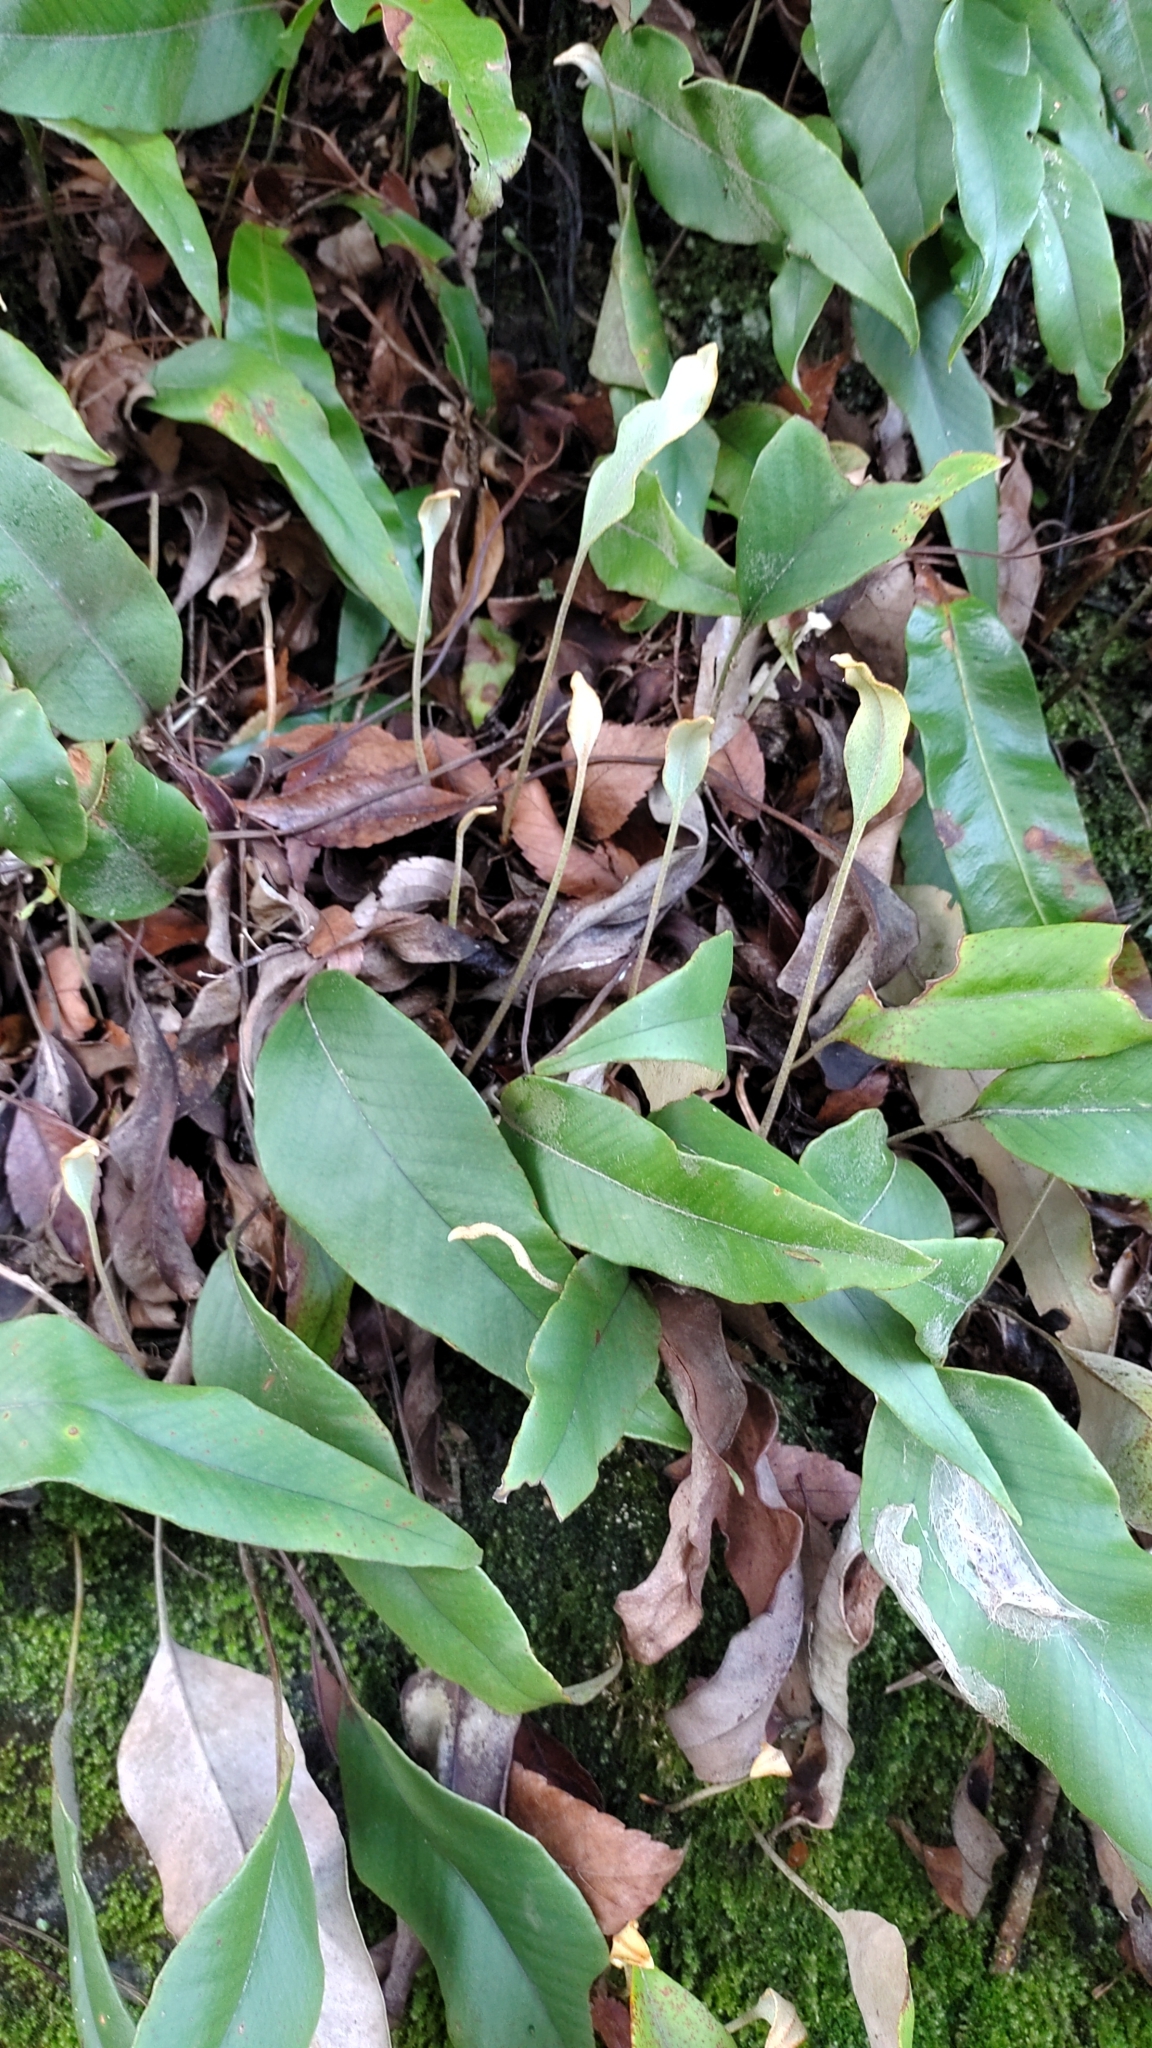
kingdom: Plantae
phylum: Tracheophyta
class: Polypodiopsida
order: Polypodiales
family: Polypodiaceae
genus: Pyrrosia
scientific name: Pyrrosia lingua
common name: Felt fern
